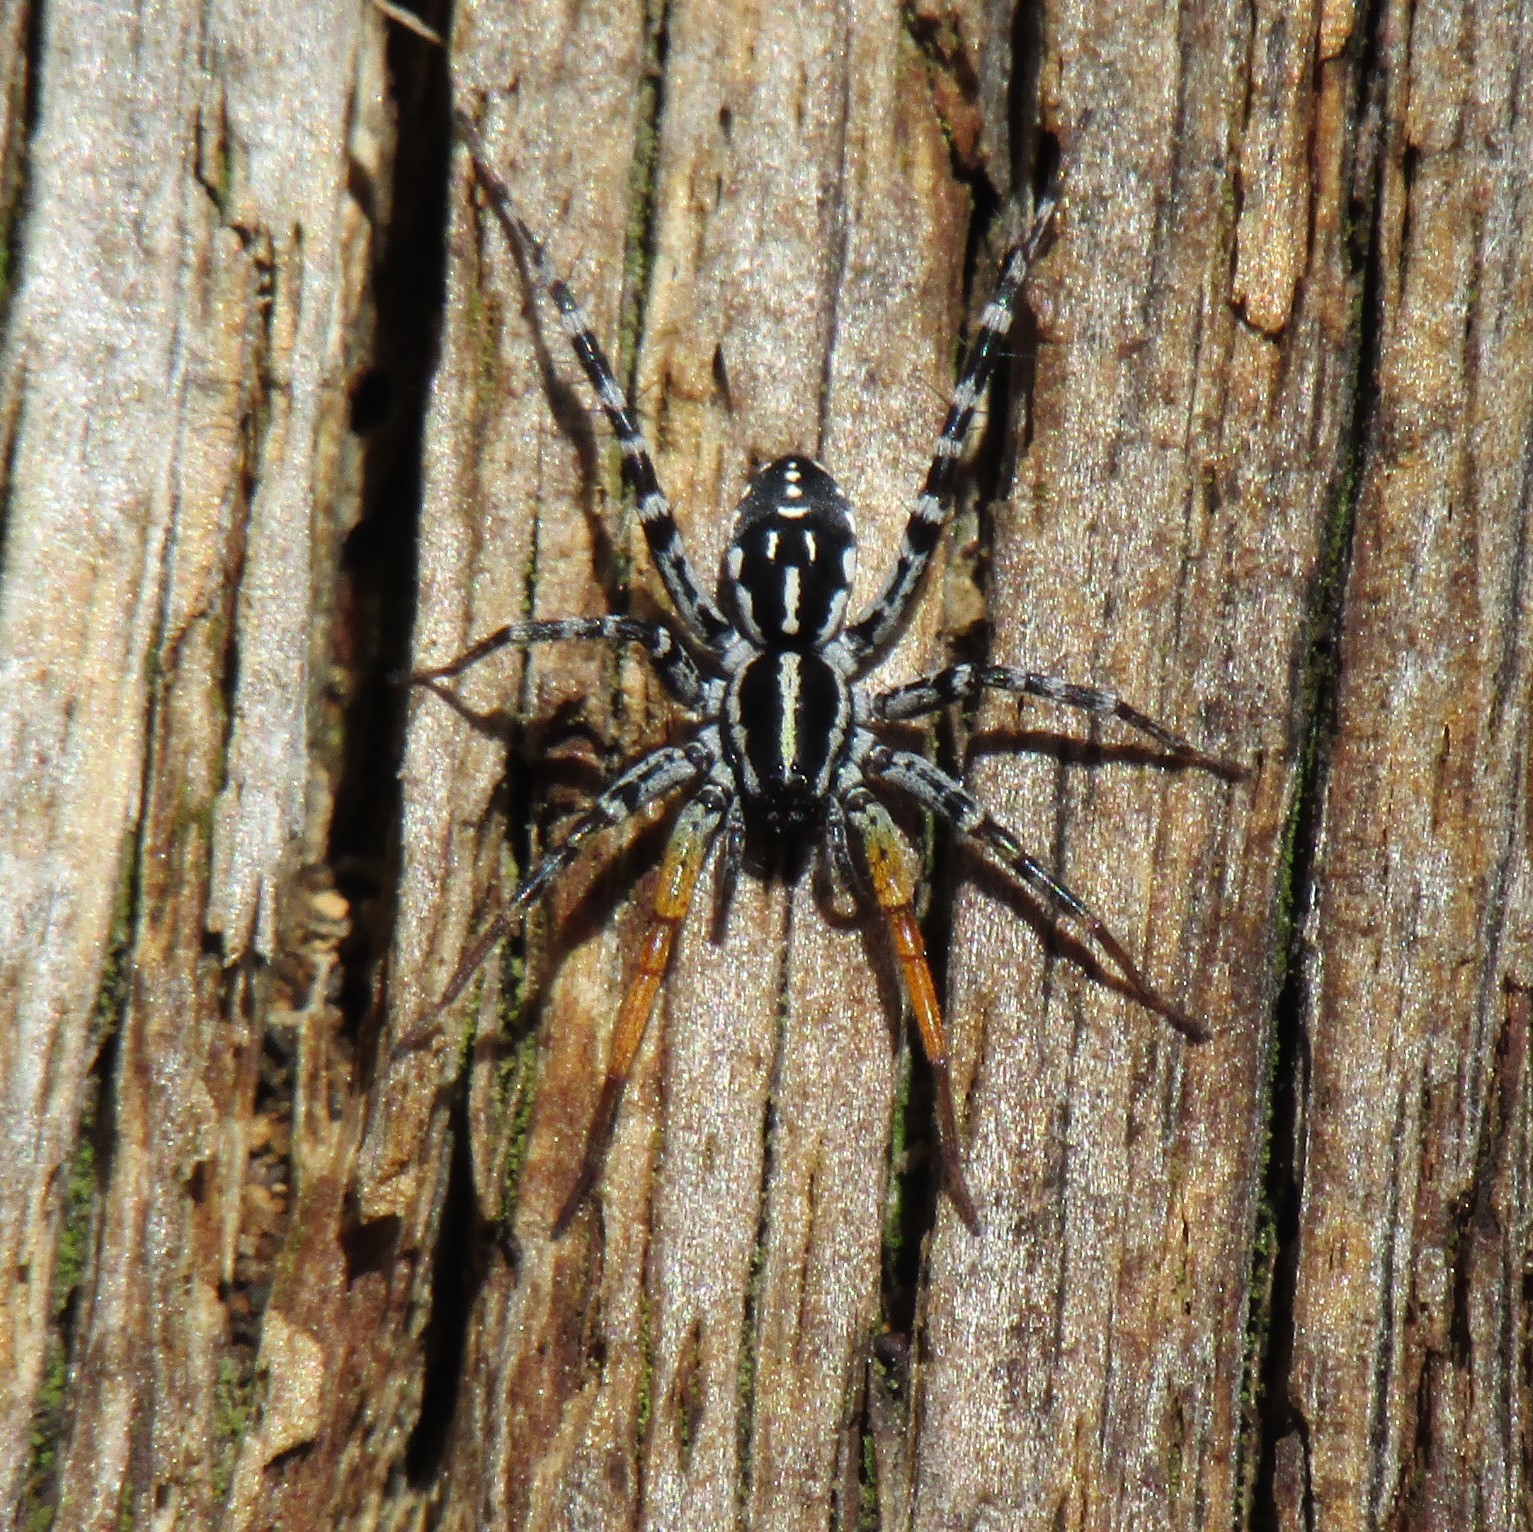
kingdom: Animalia
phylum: Arthropoda
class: Arachnida
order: Araneae
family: Corinnidae
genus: Nyssus
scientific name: Nyssus coloripes
